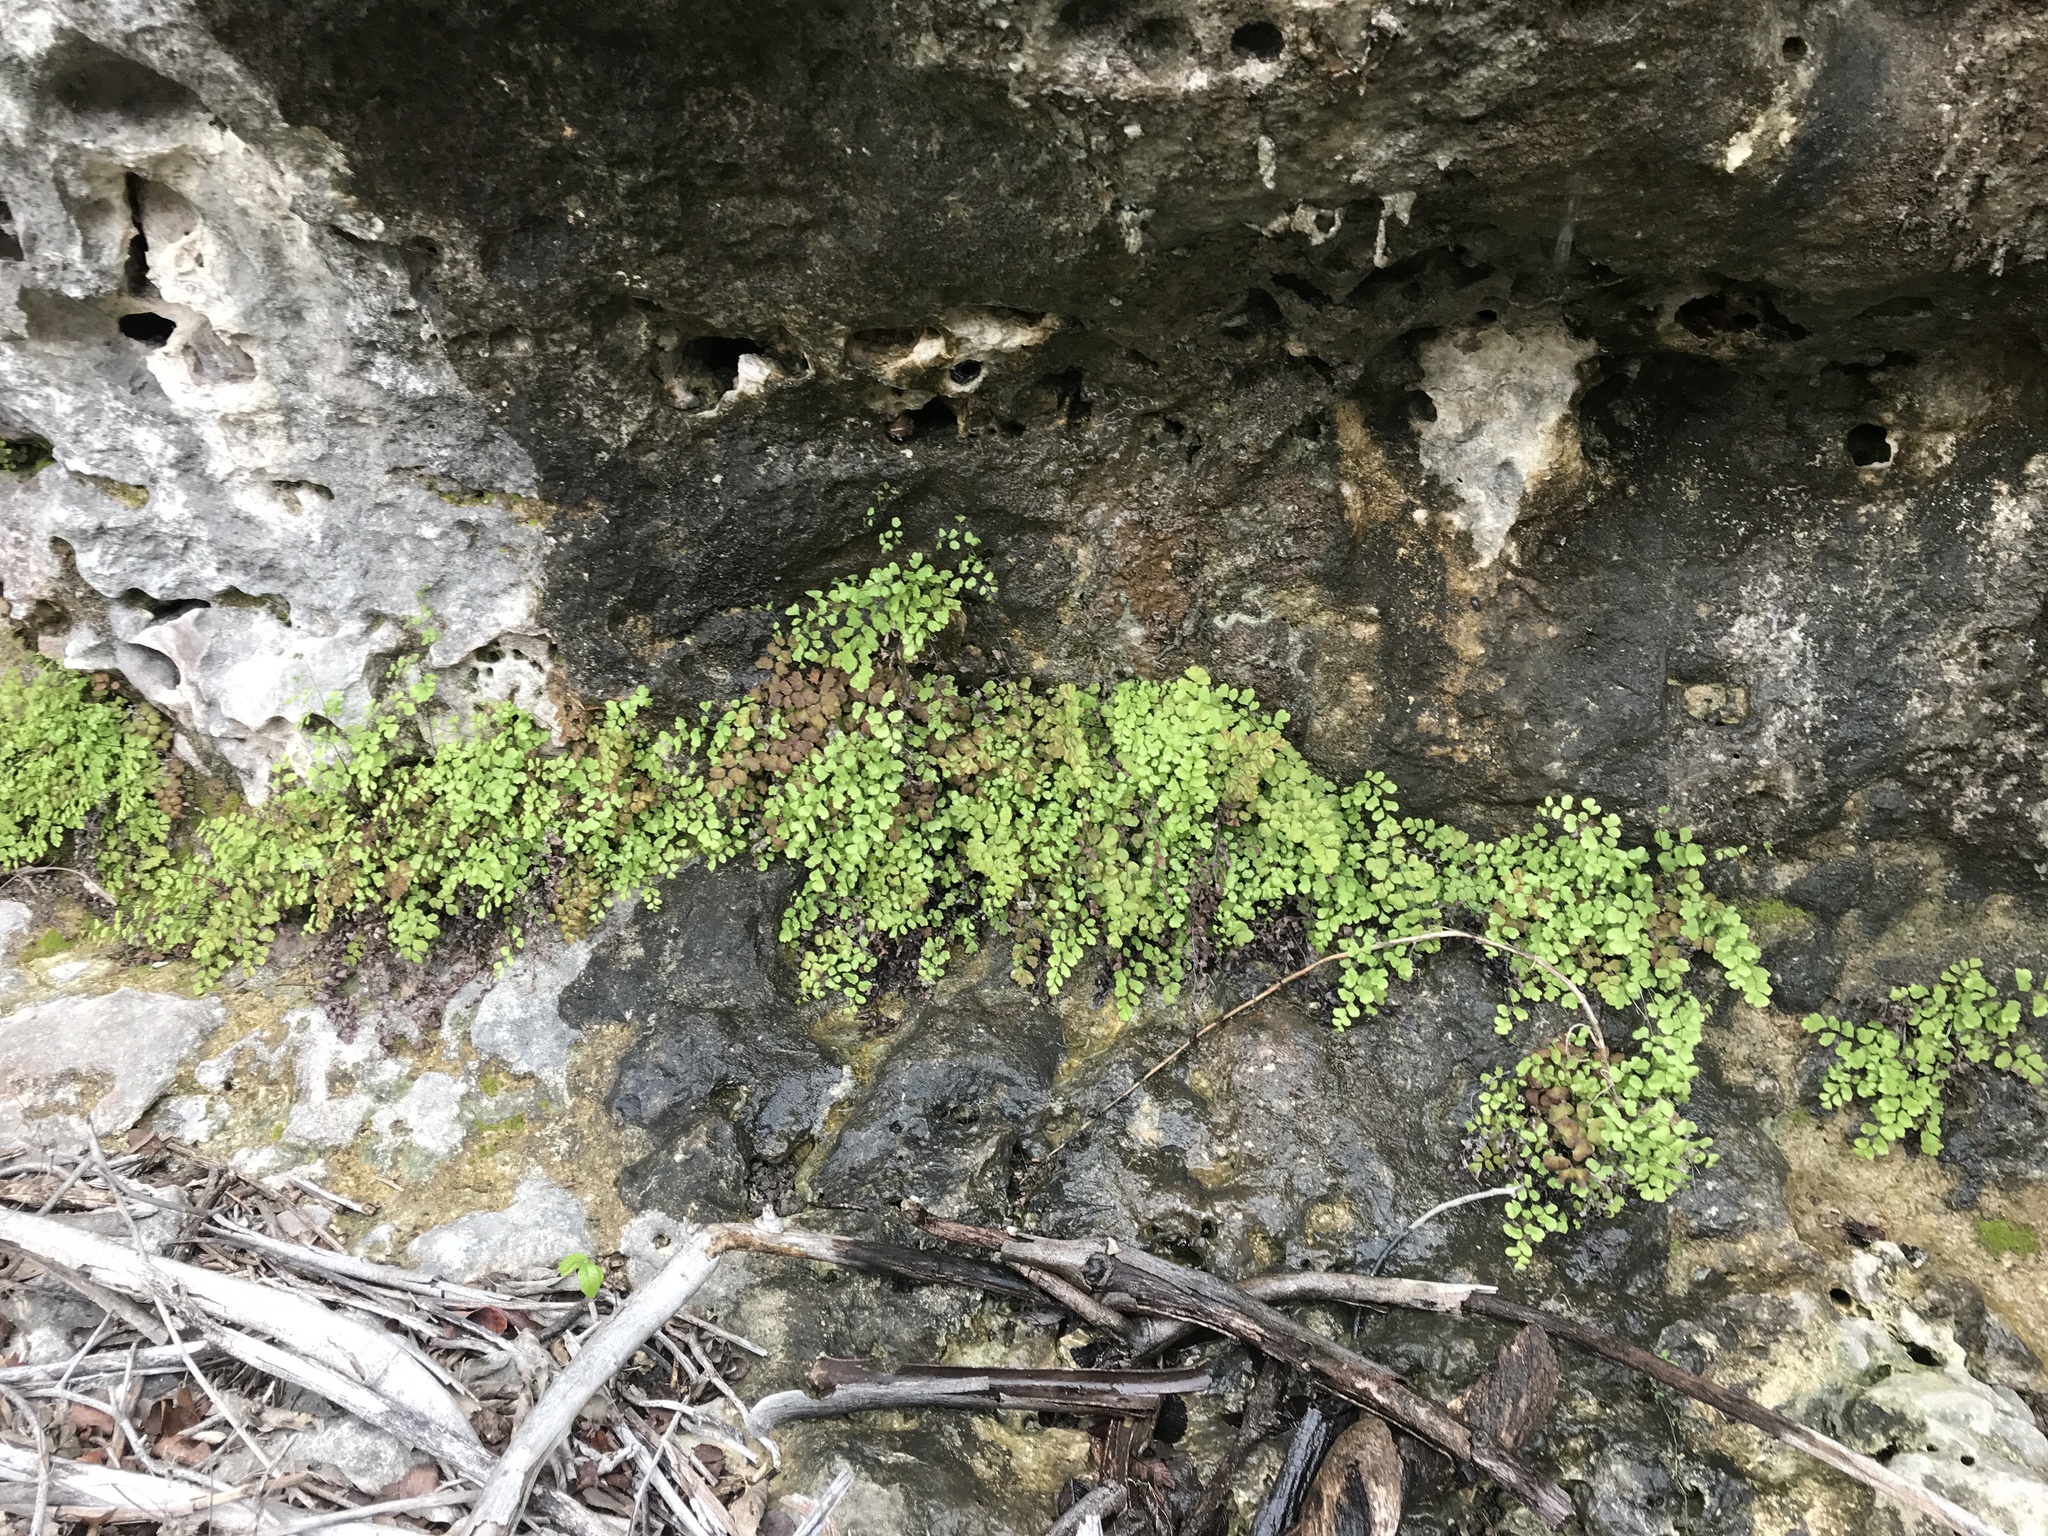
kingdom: Plantae
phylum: Tracheophyta
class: Polypodiopsida
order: Polypodiales
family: Pteridaceae
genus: Adiantum
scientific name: Adiantum capillus-veneris
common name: Maidenhair fern
